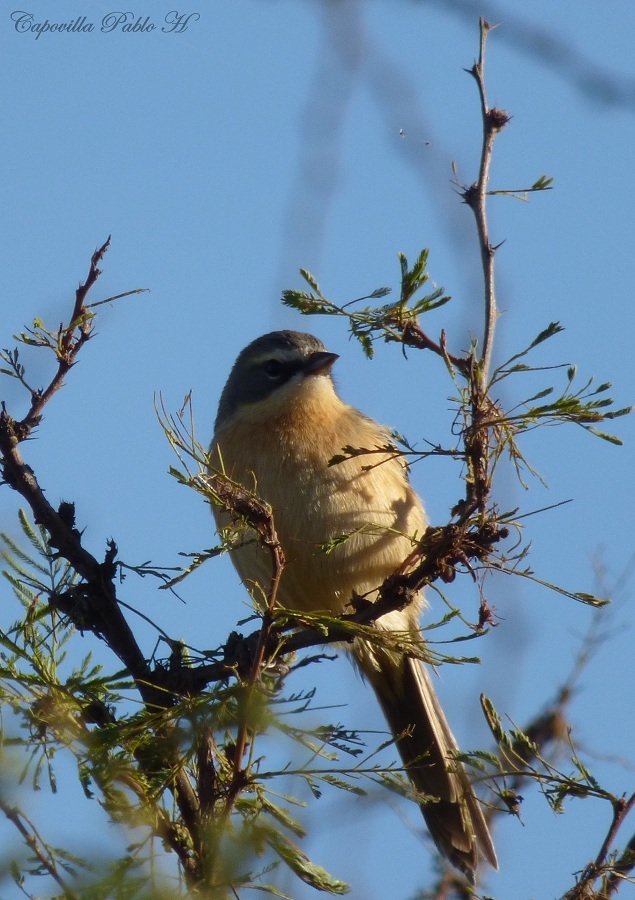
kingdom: Animalia
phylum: Chordata
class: Aves
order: Passeriformes
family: Thraupidae
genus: Donacospiza
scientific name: Donacospiza albifrons
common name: Long-tailed reed finch
